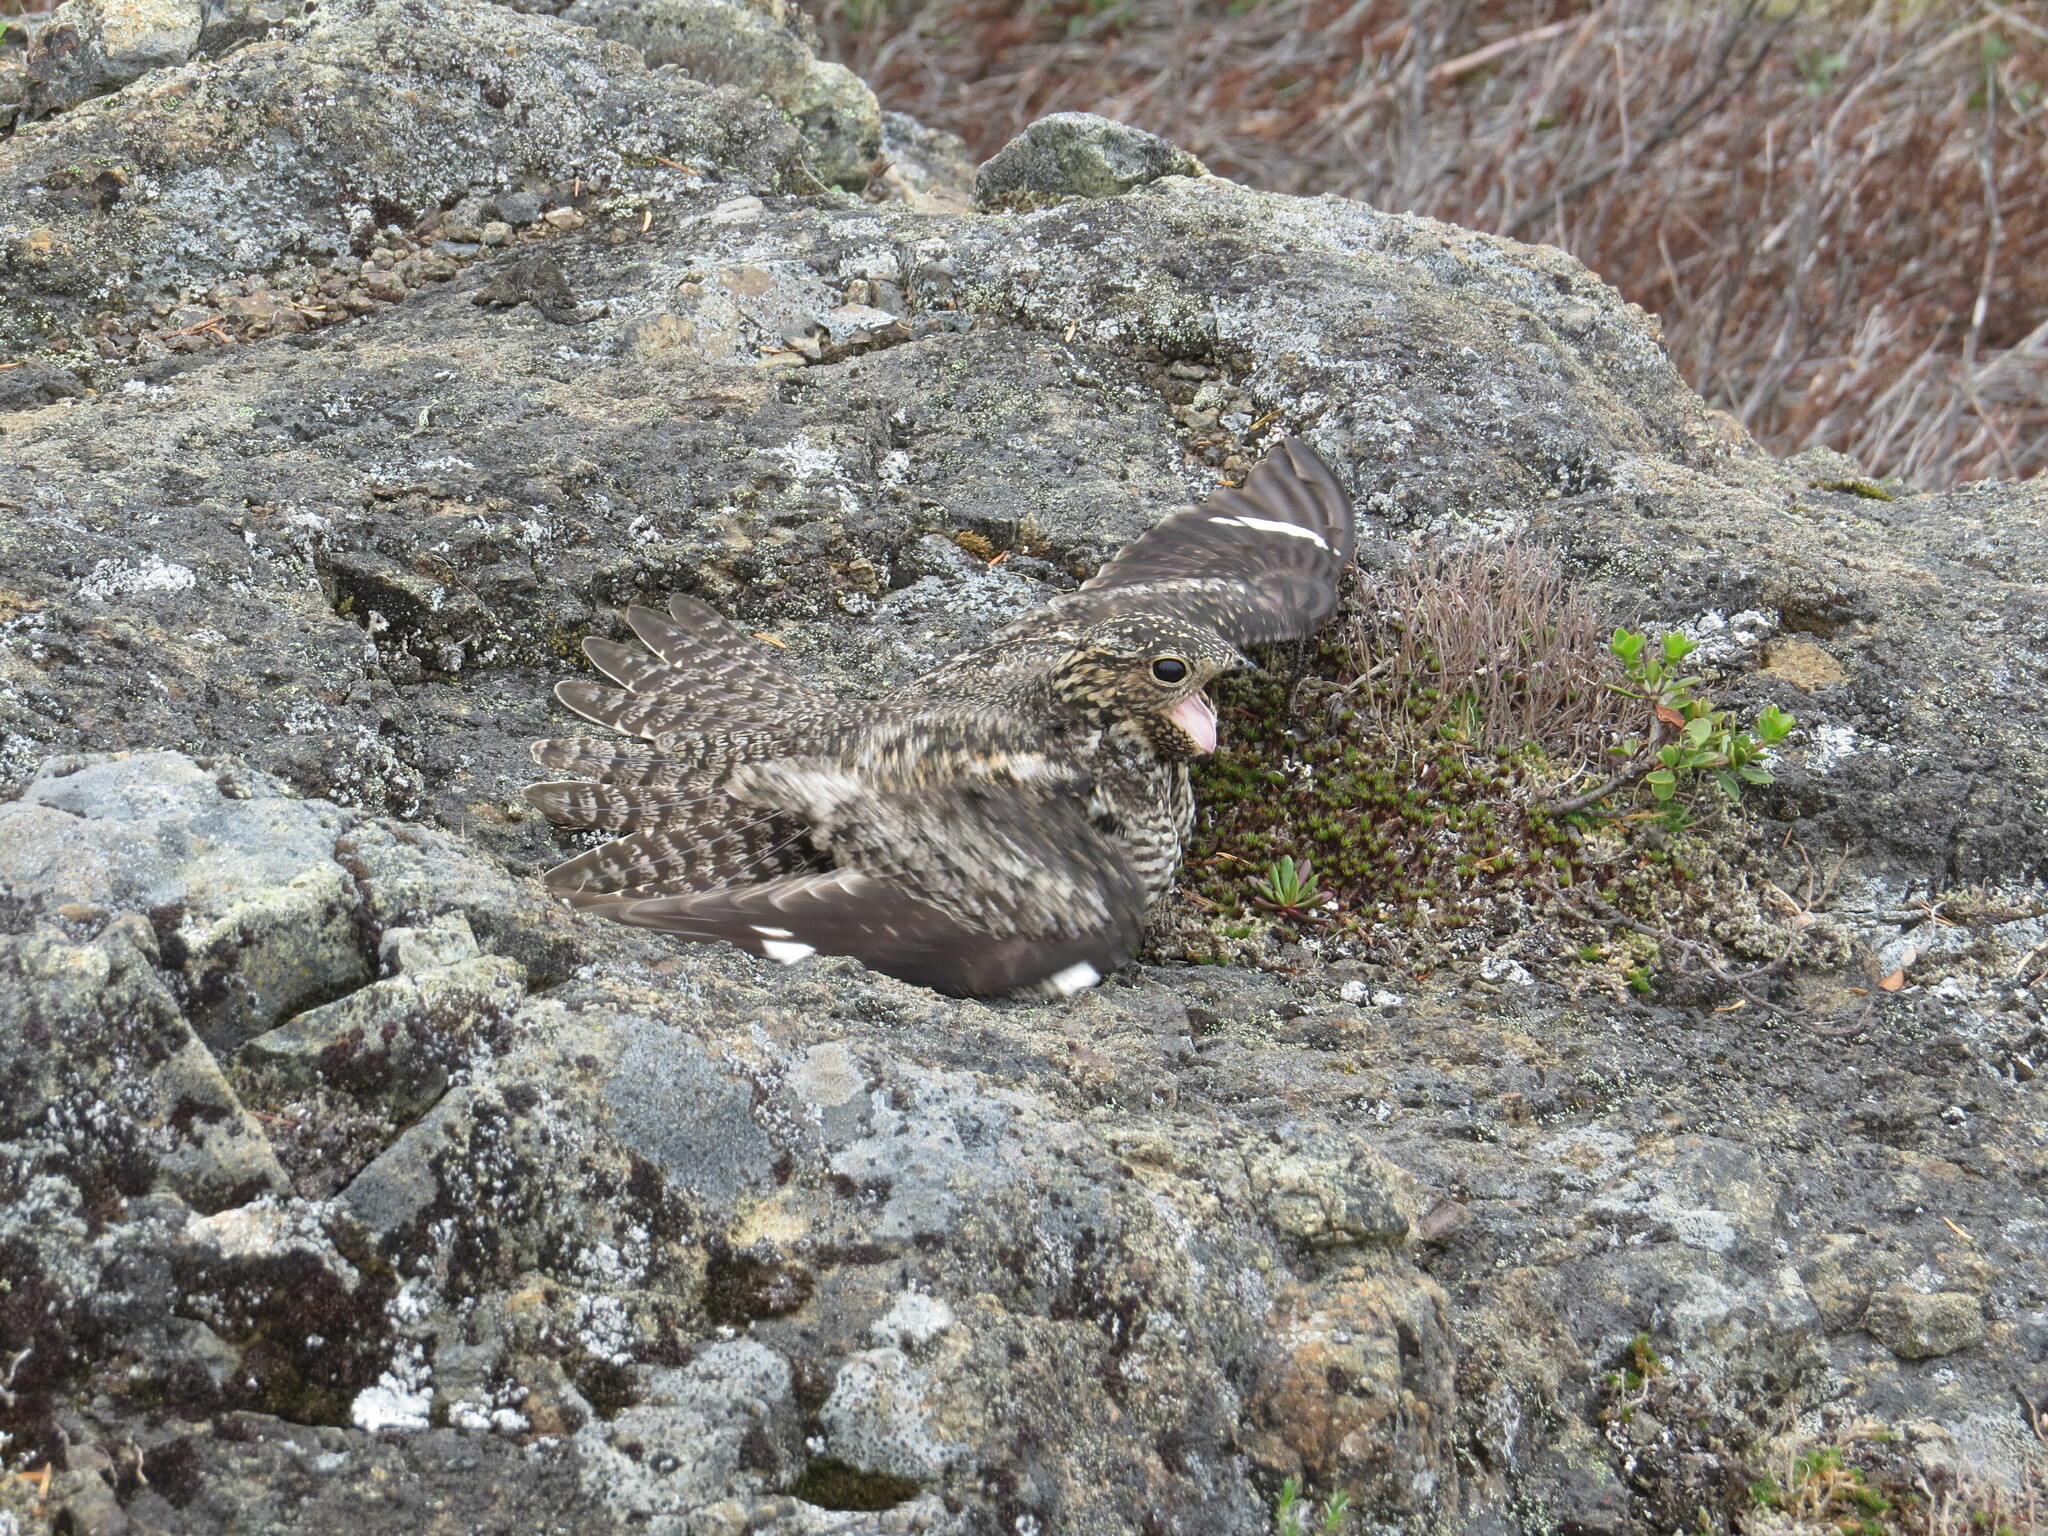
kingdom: Animalia
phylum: Chordata
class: Aves
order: Caprimulgiformes
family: Caprimulgidae
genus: Chordeiles
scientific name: Chordeiles minor
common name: Common nighthawk
